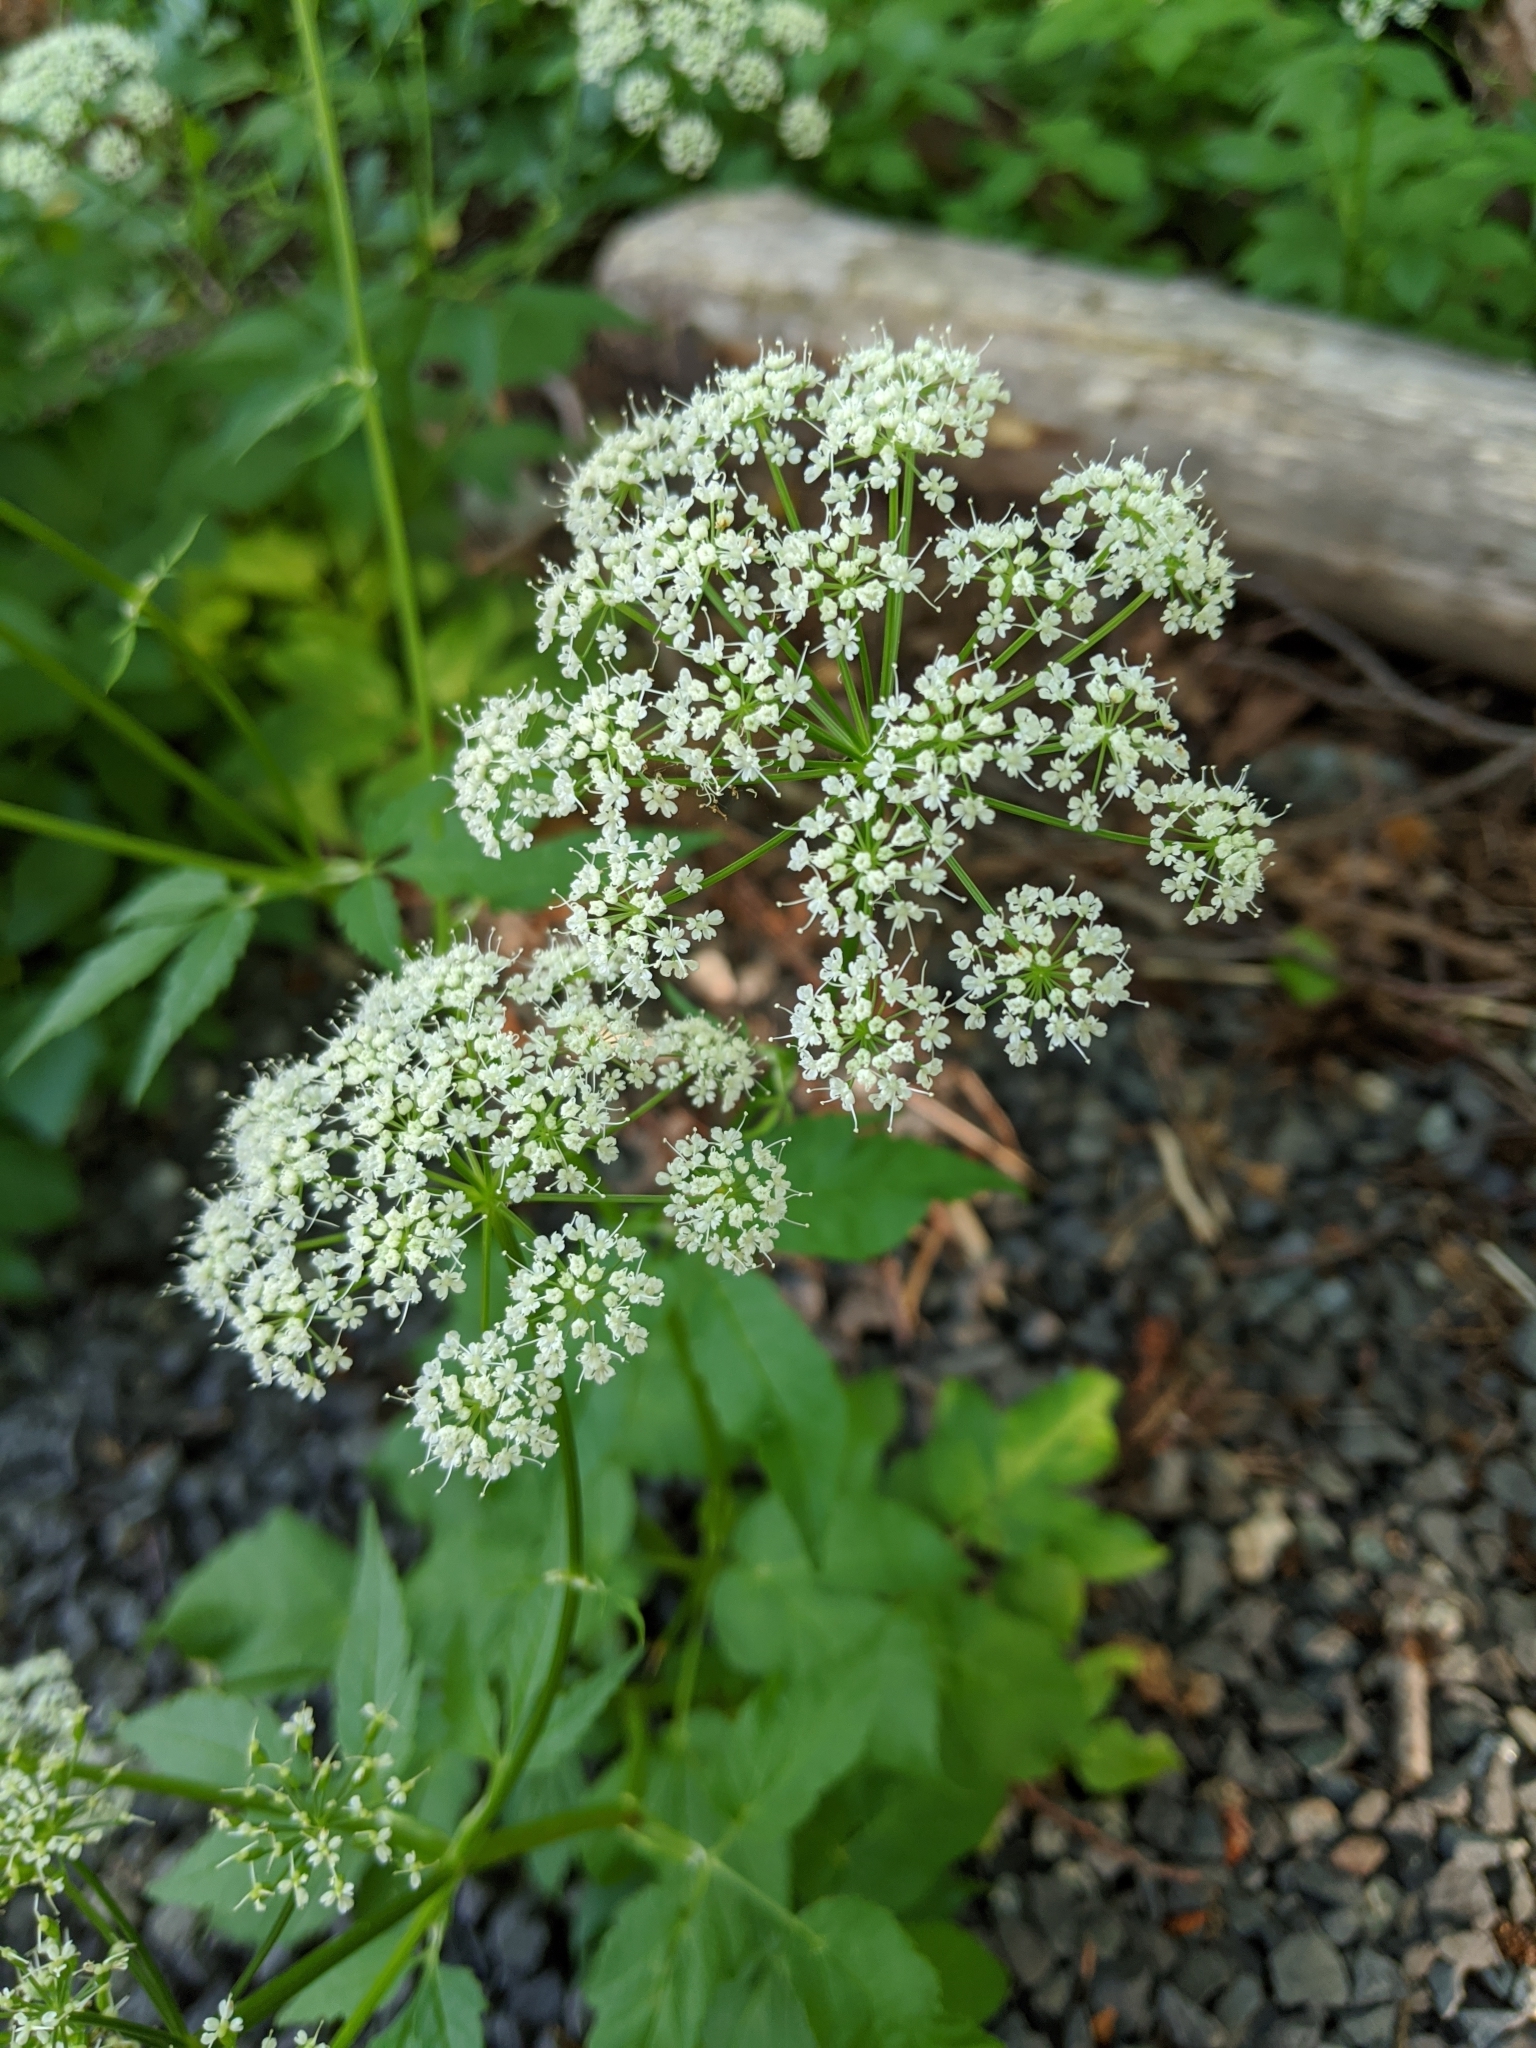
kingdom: Plantae
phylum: Tracheophyta
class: Magnoliopsida
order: Apiales
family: Apiaceae
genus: Aegopodium
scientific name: Aegopodium podagraria
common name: Ground-elder
